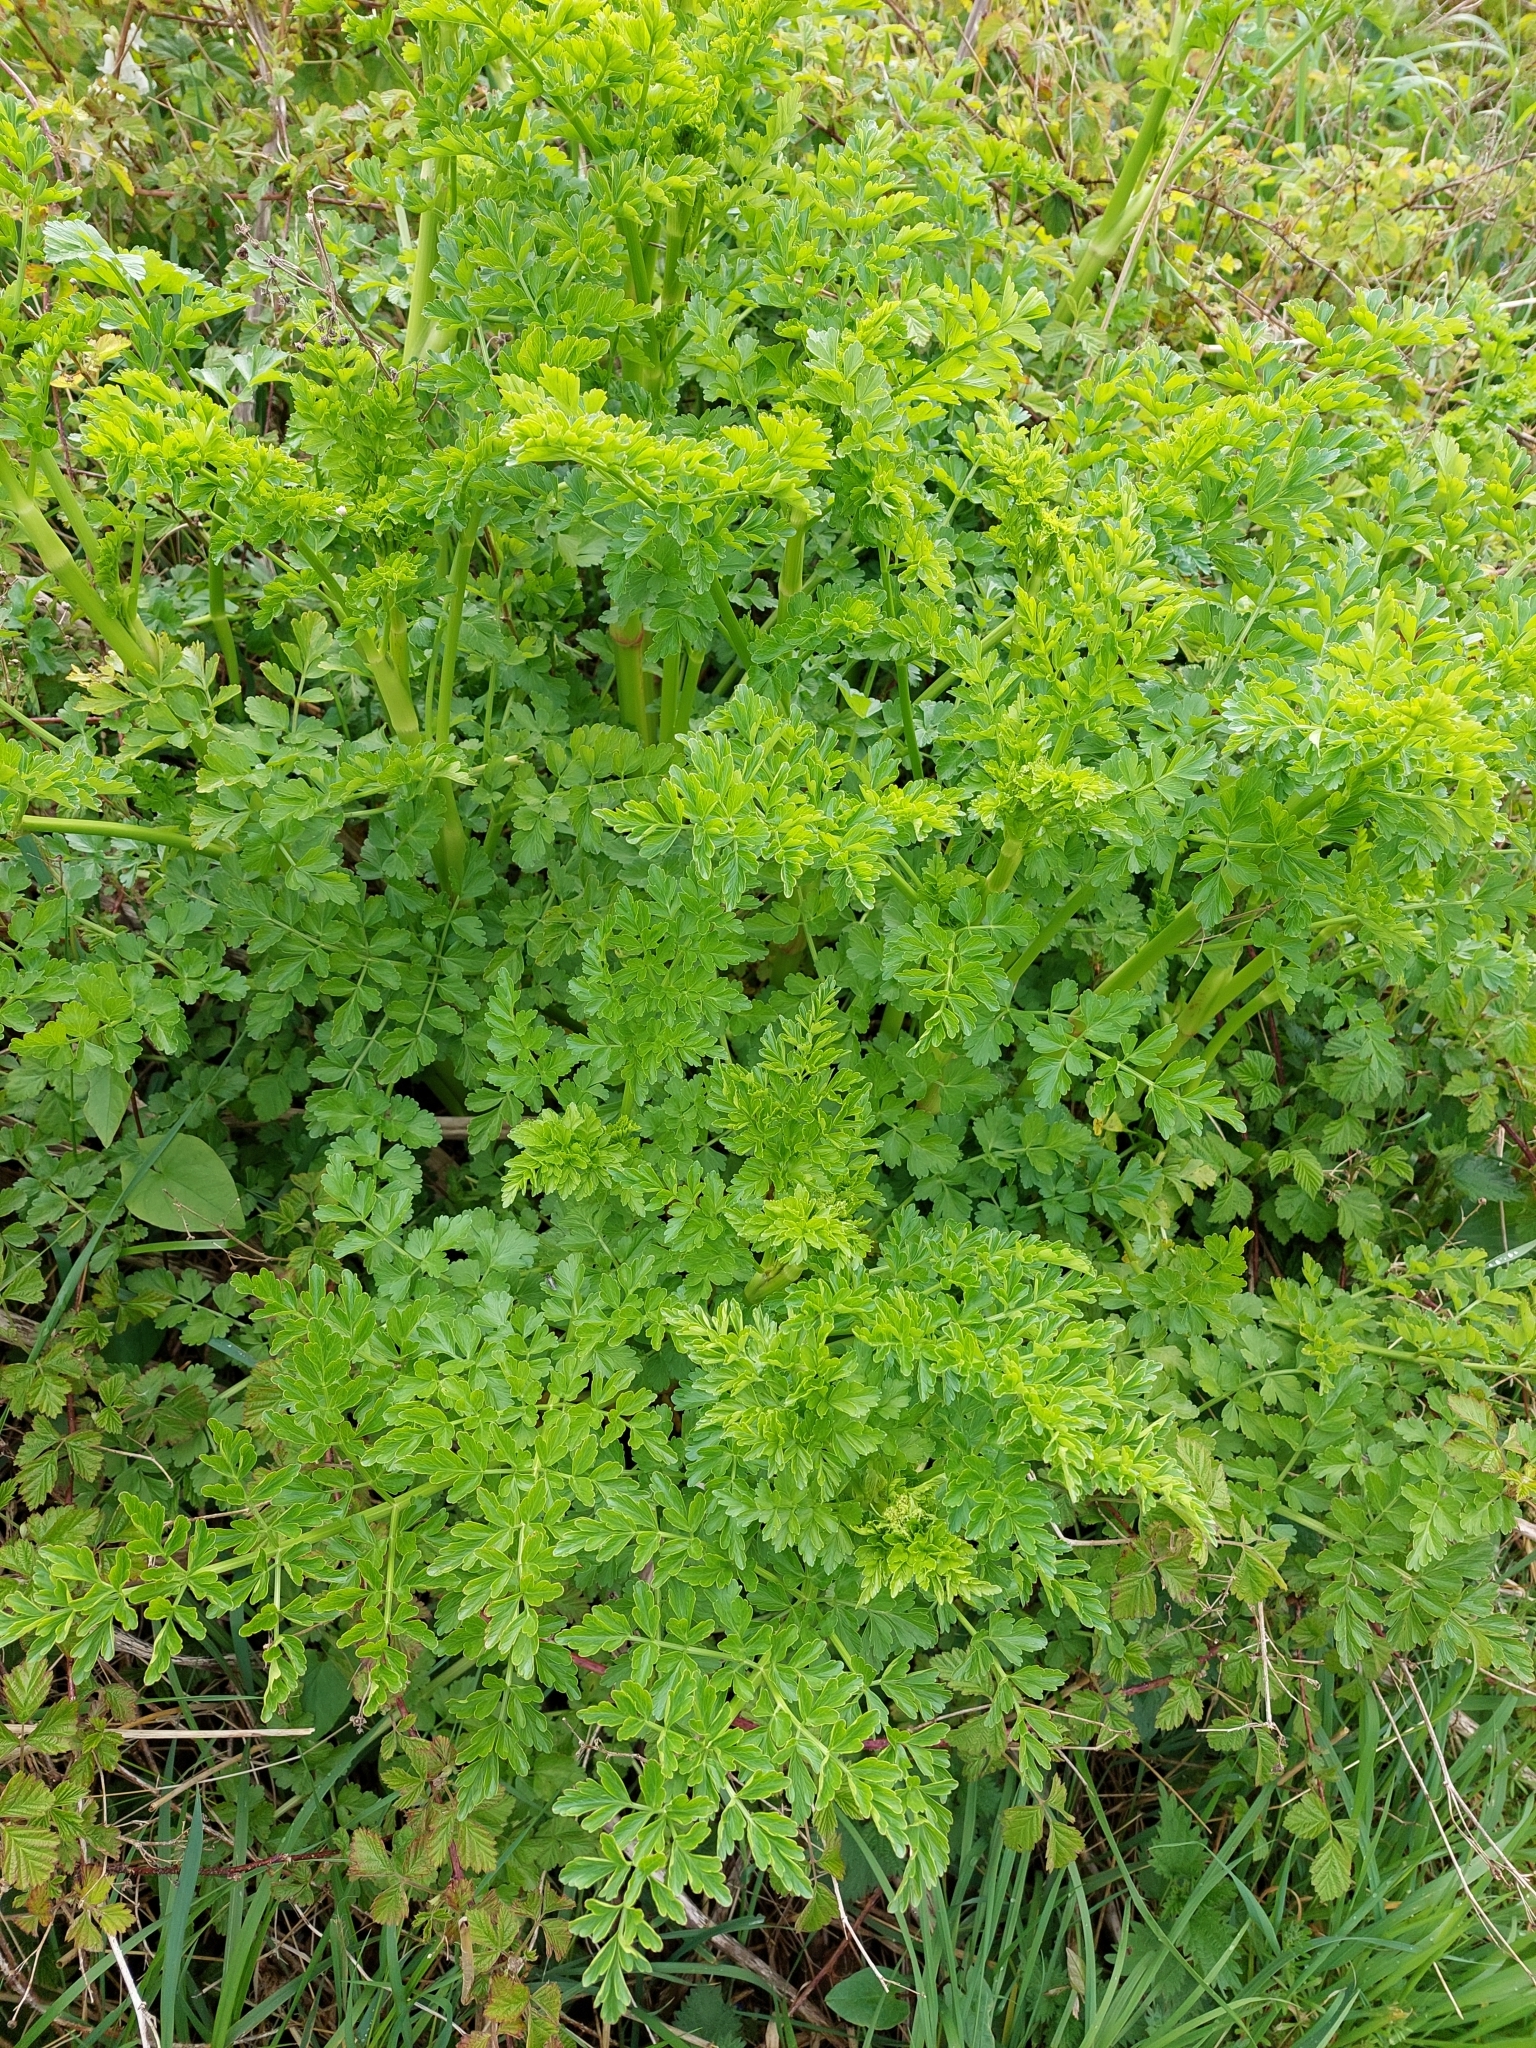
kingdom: Plantae
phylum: Tracheophyta
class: Magnoliopsida
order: Apiales
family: Apiaceae
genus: Oenanthe
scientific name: Oenanthe crocata
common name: Hemlock water-dropwort
